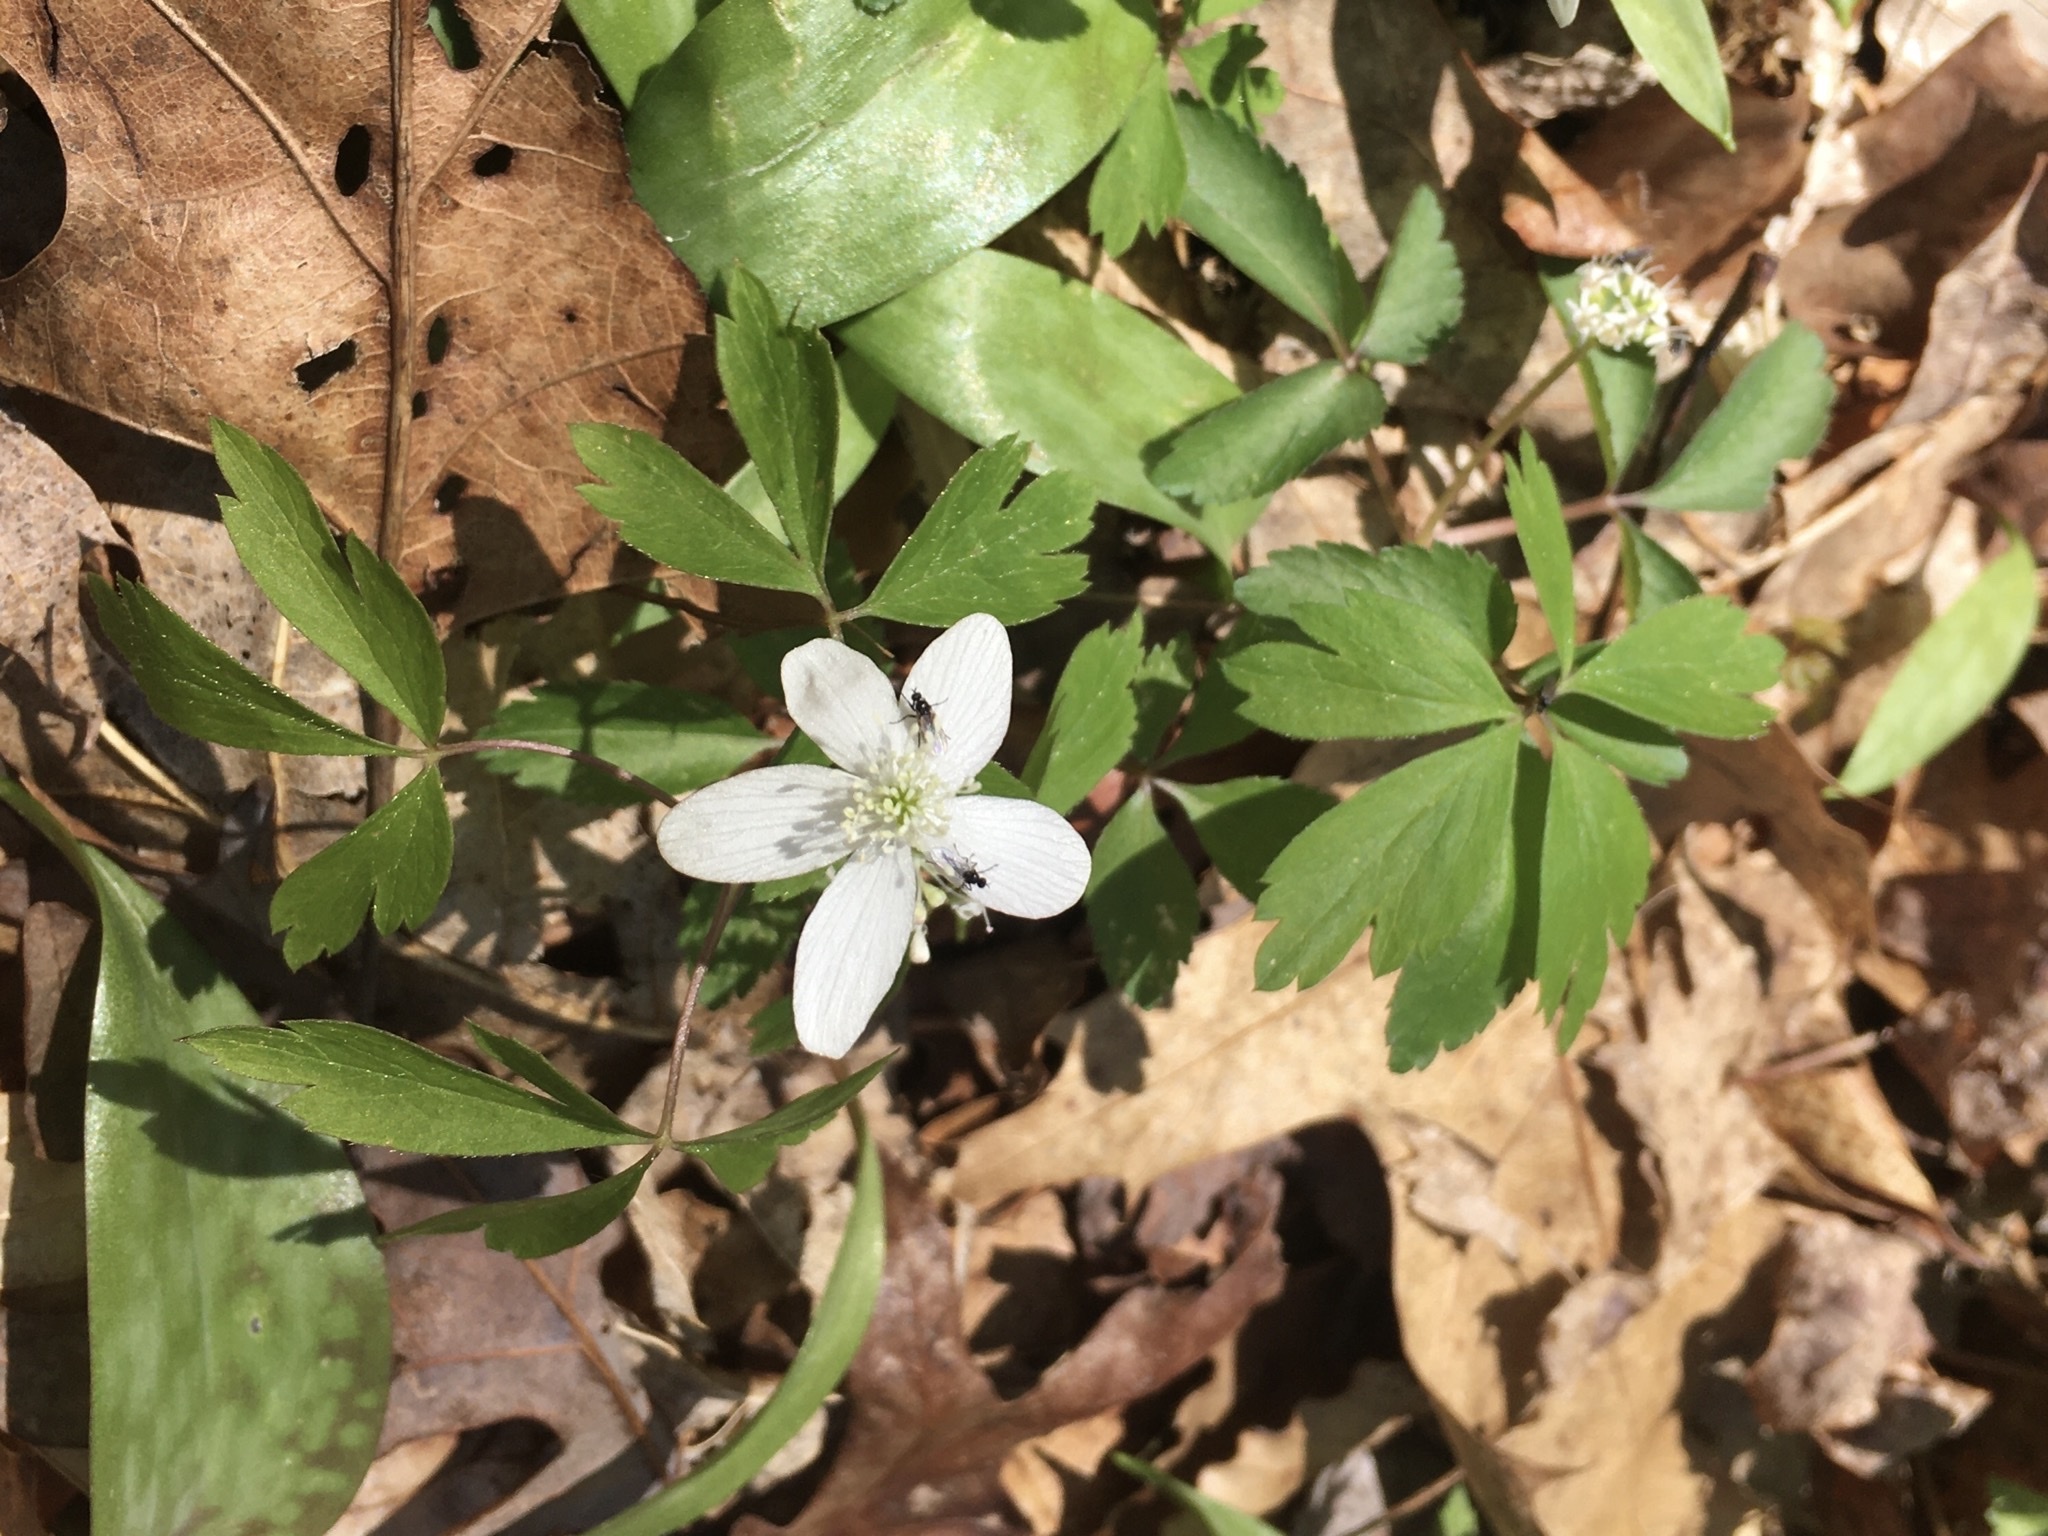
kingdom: Plantae
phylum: Tracheophyta
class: Magnoliopsida
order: Ranunculales
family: Ranunculaceae
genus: Anemone
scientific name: Anemone quinquefolia
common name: Wood anemone
